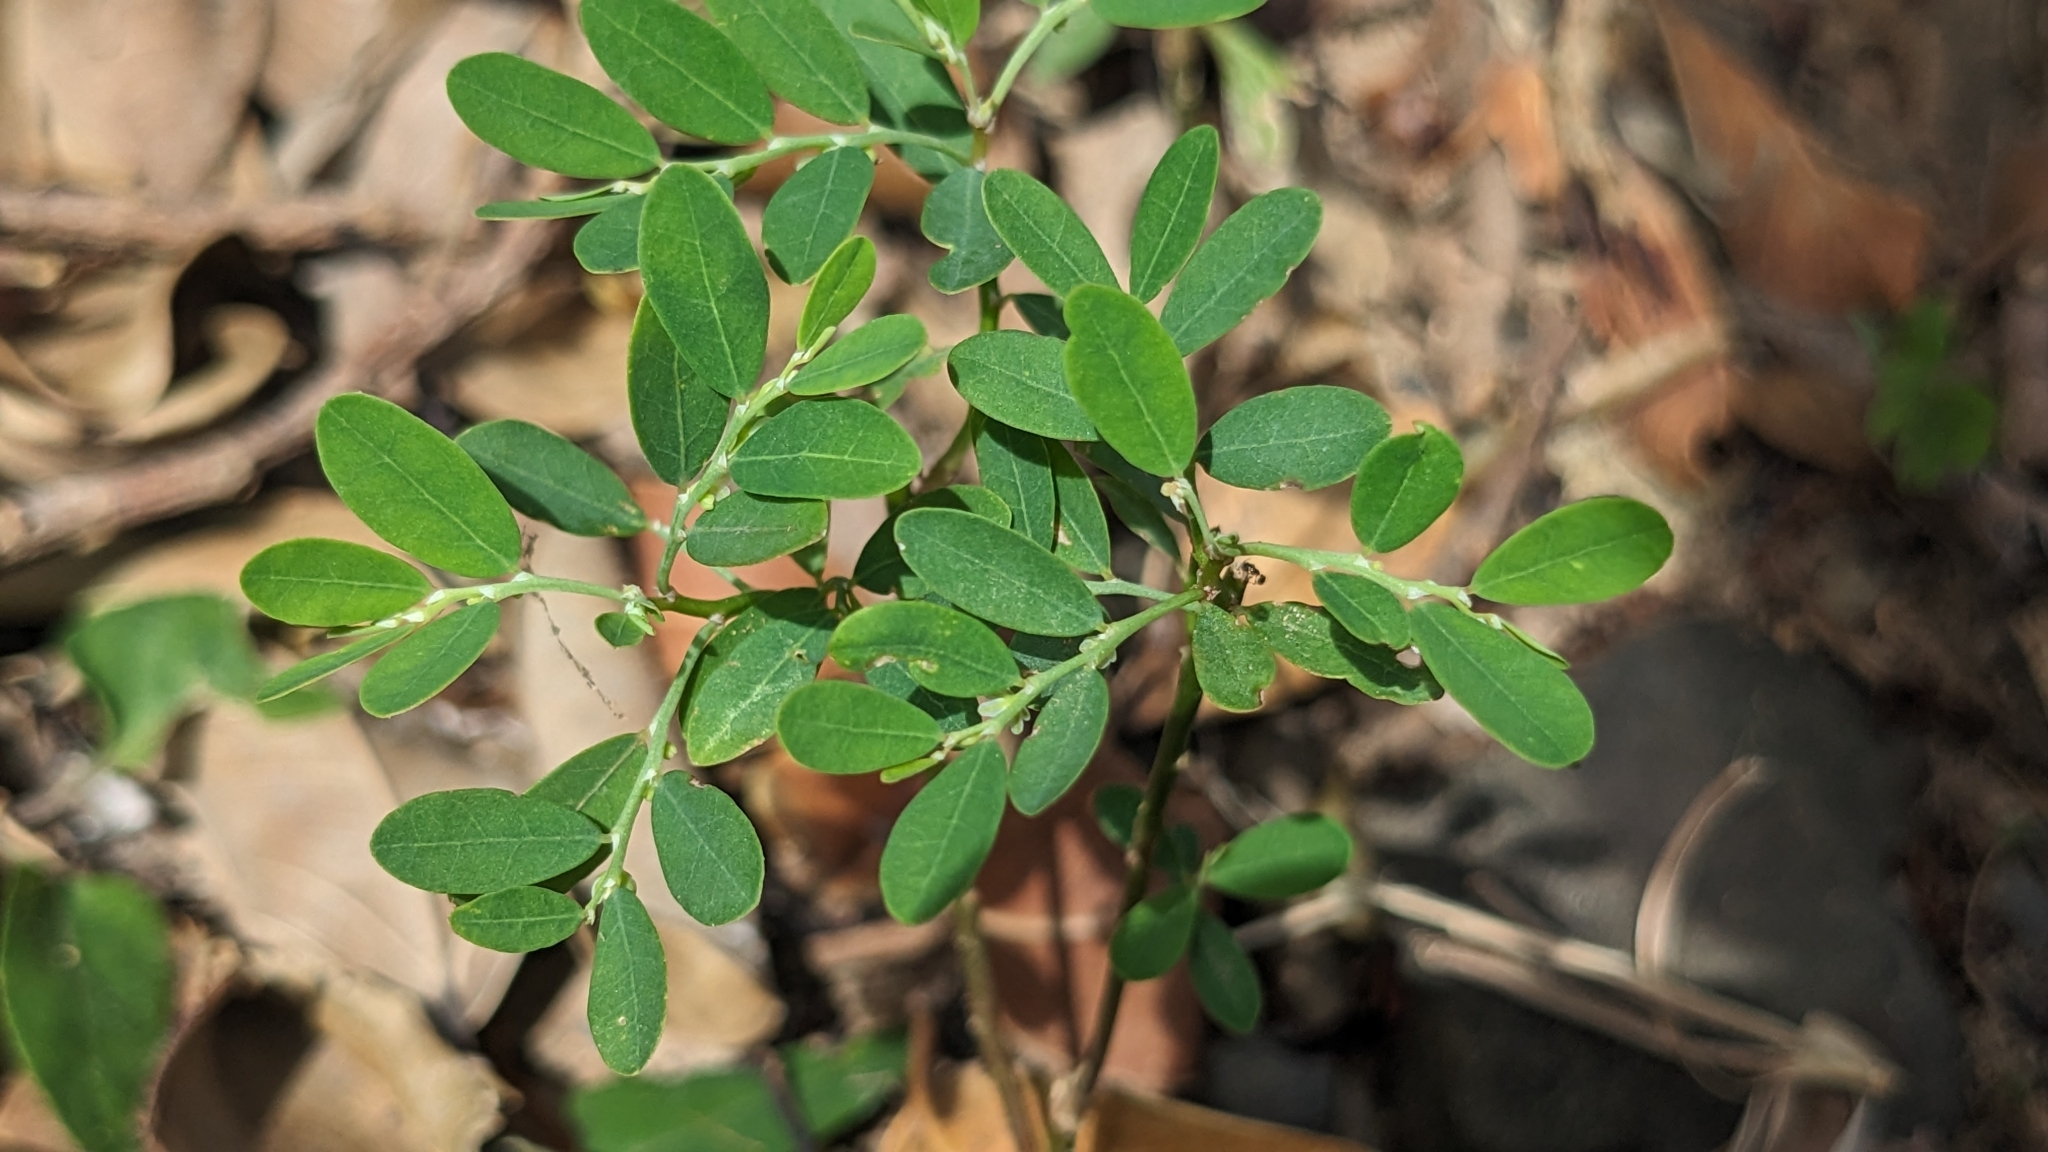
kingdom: Plantae
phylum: Tracheophyta
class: Magnoliopsida
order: Malpighiales
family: Phyllanthaceae
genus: Phyllanthus
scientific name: Phyllanthus debilis
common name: Niruri
